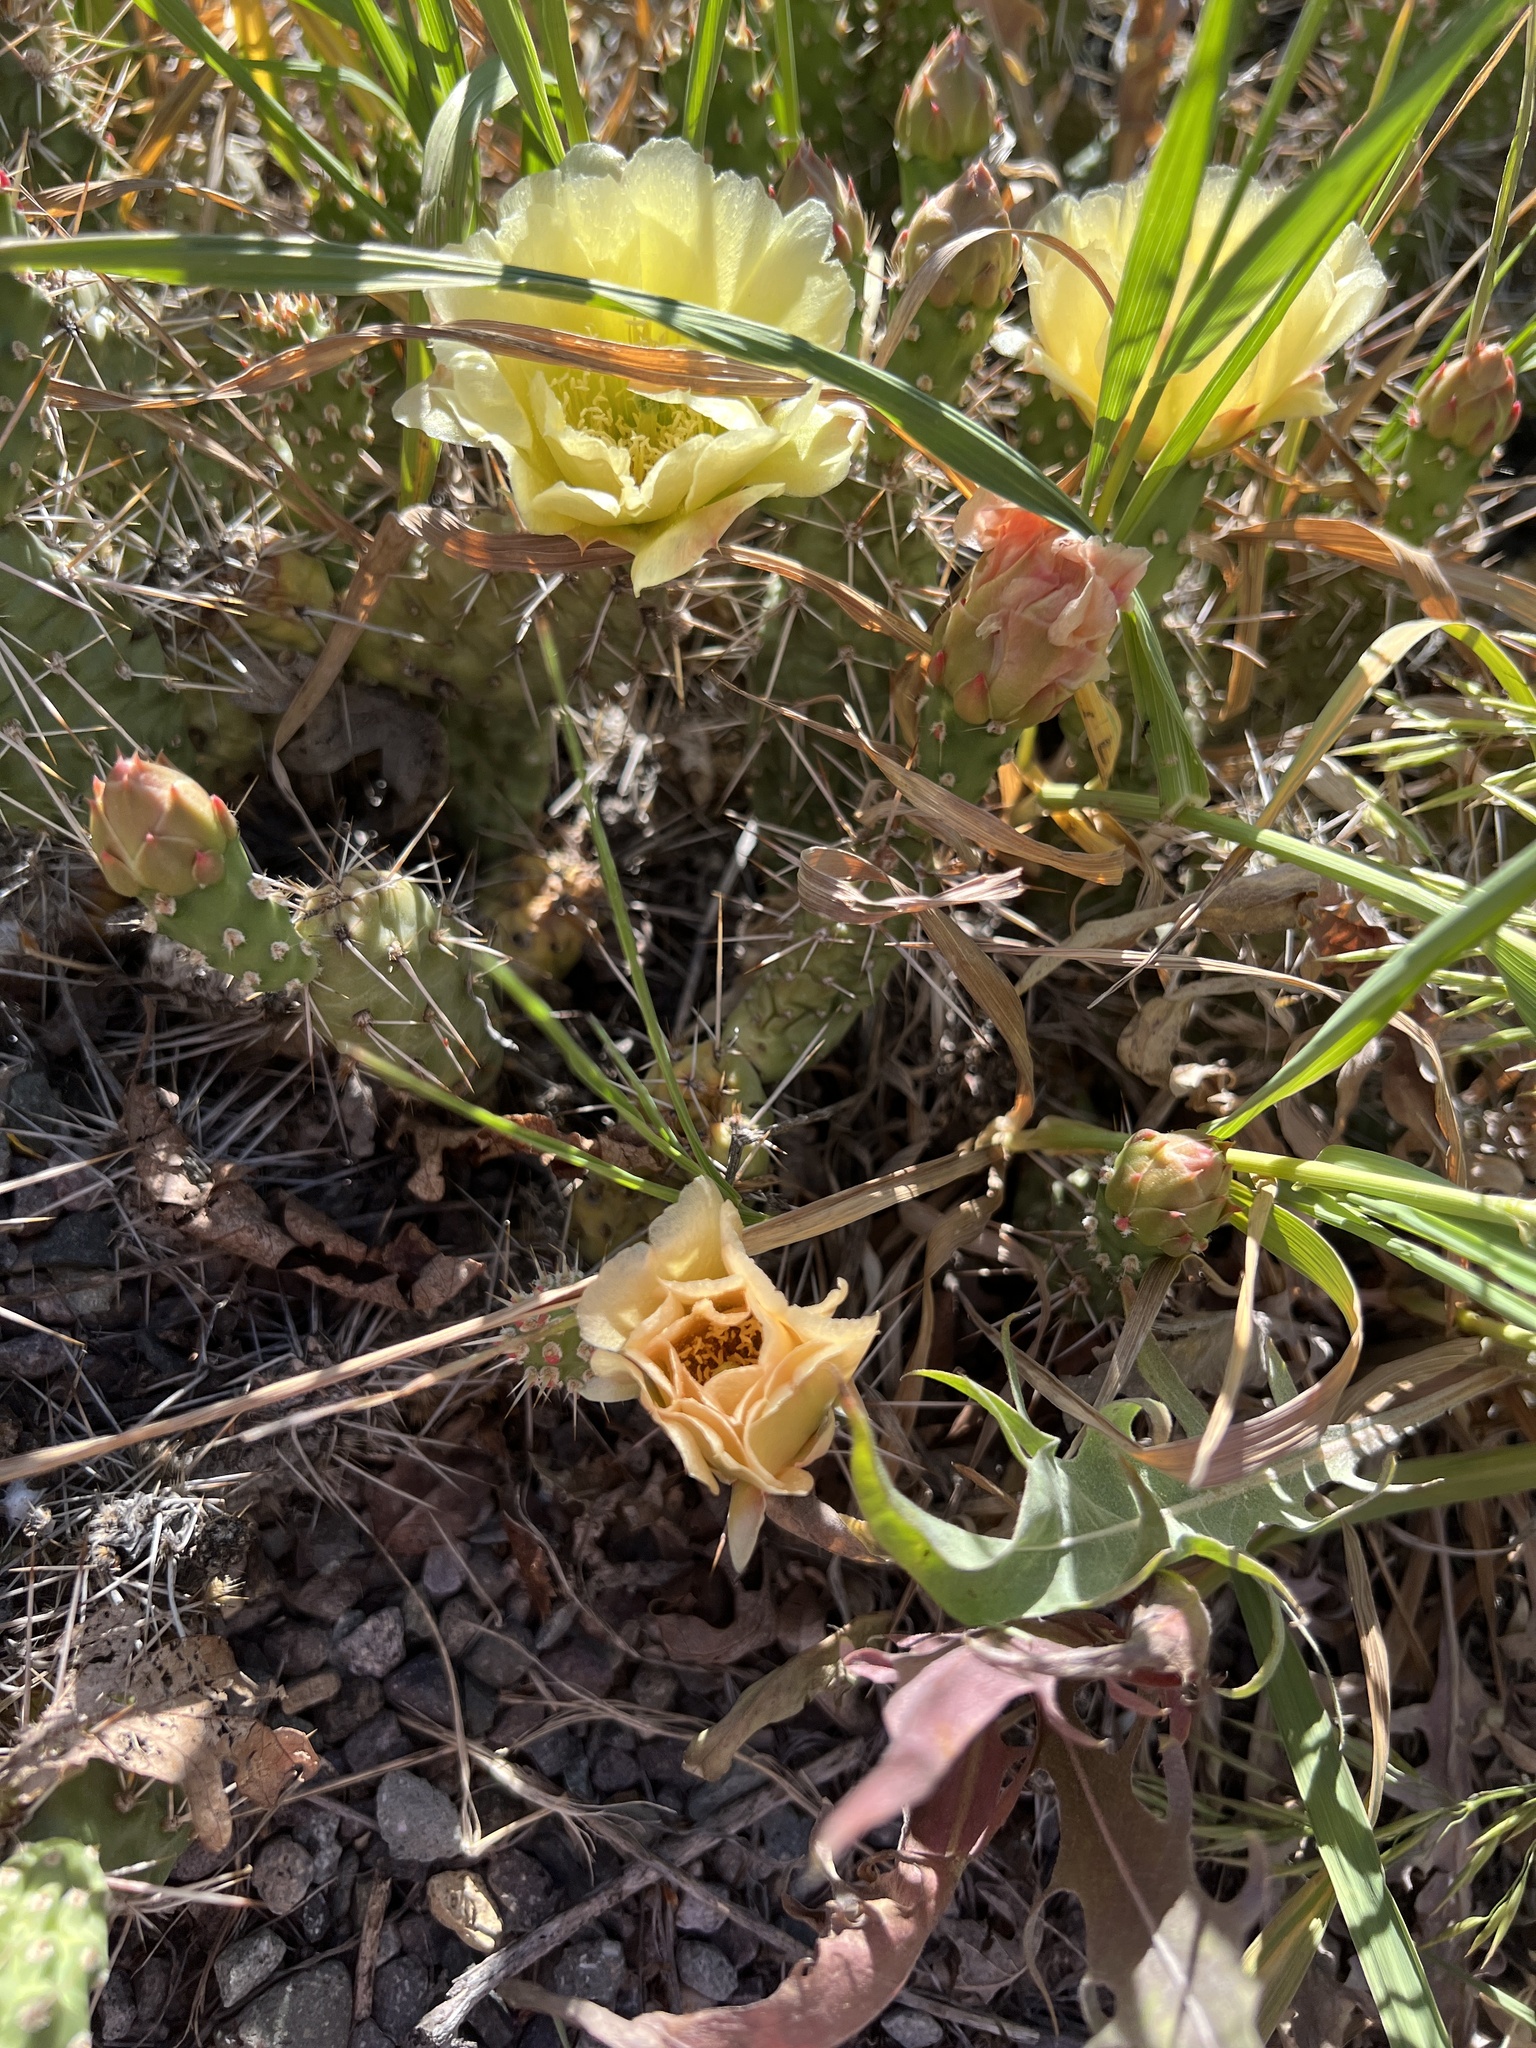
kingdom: Plantae
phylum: Tracheophyta
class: Magnoliopsida
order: Caryophyllales
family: Cactaceae
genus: Opuntia
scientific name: Opuntia fragilis
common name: Brittle cactus
